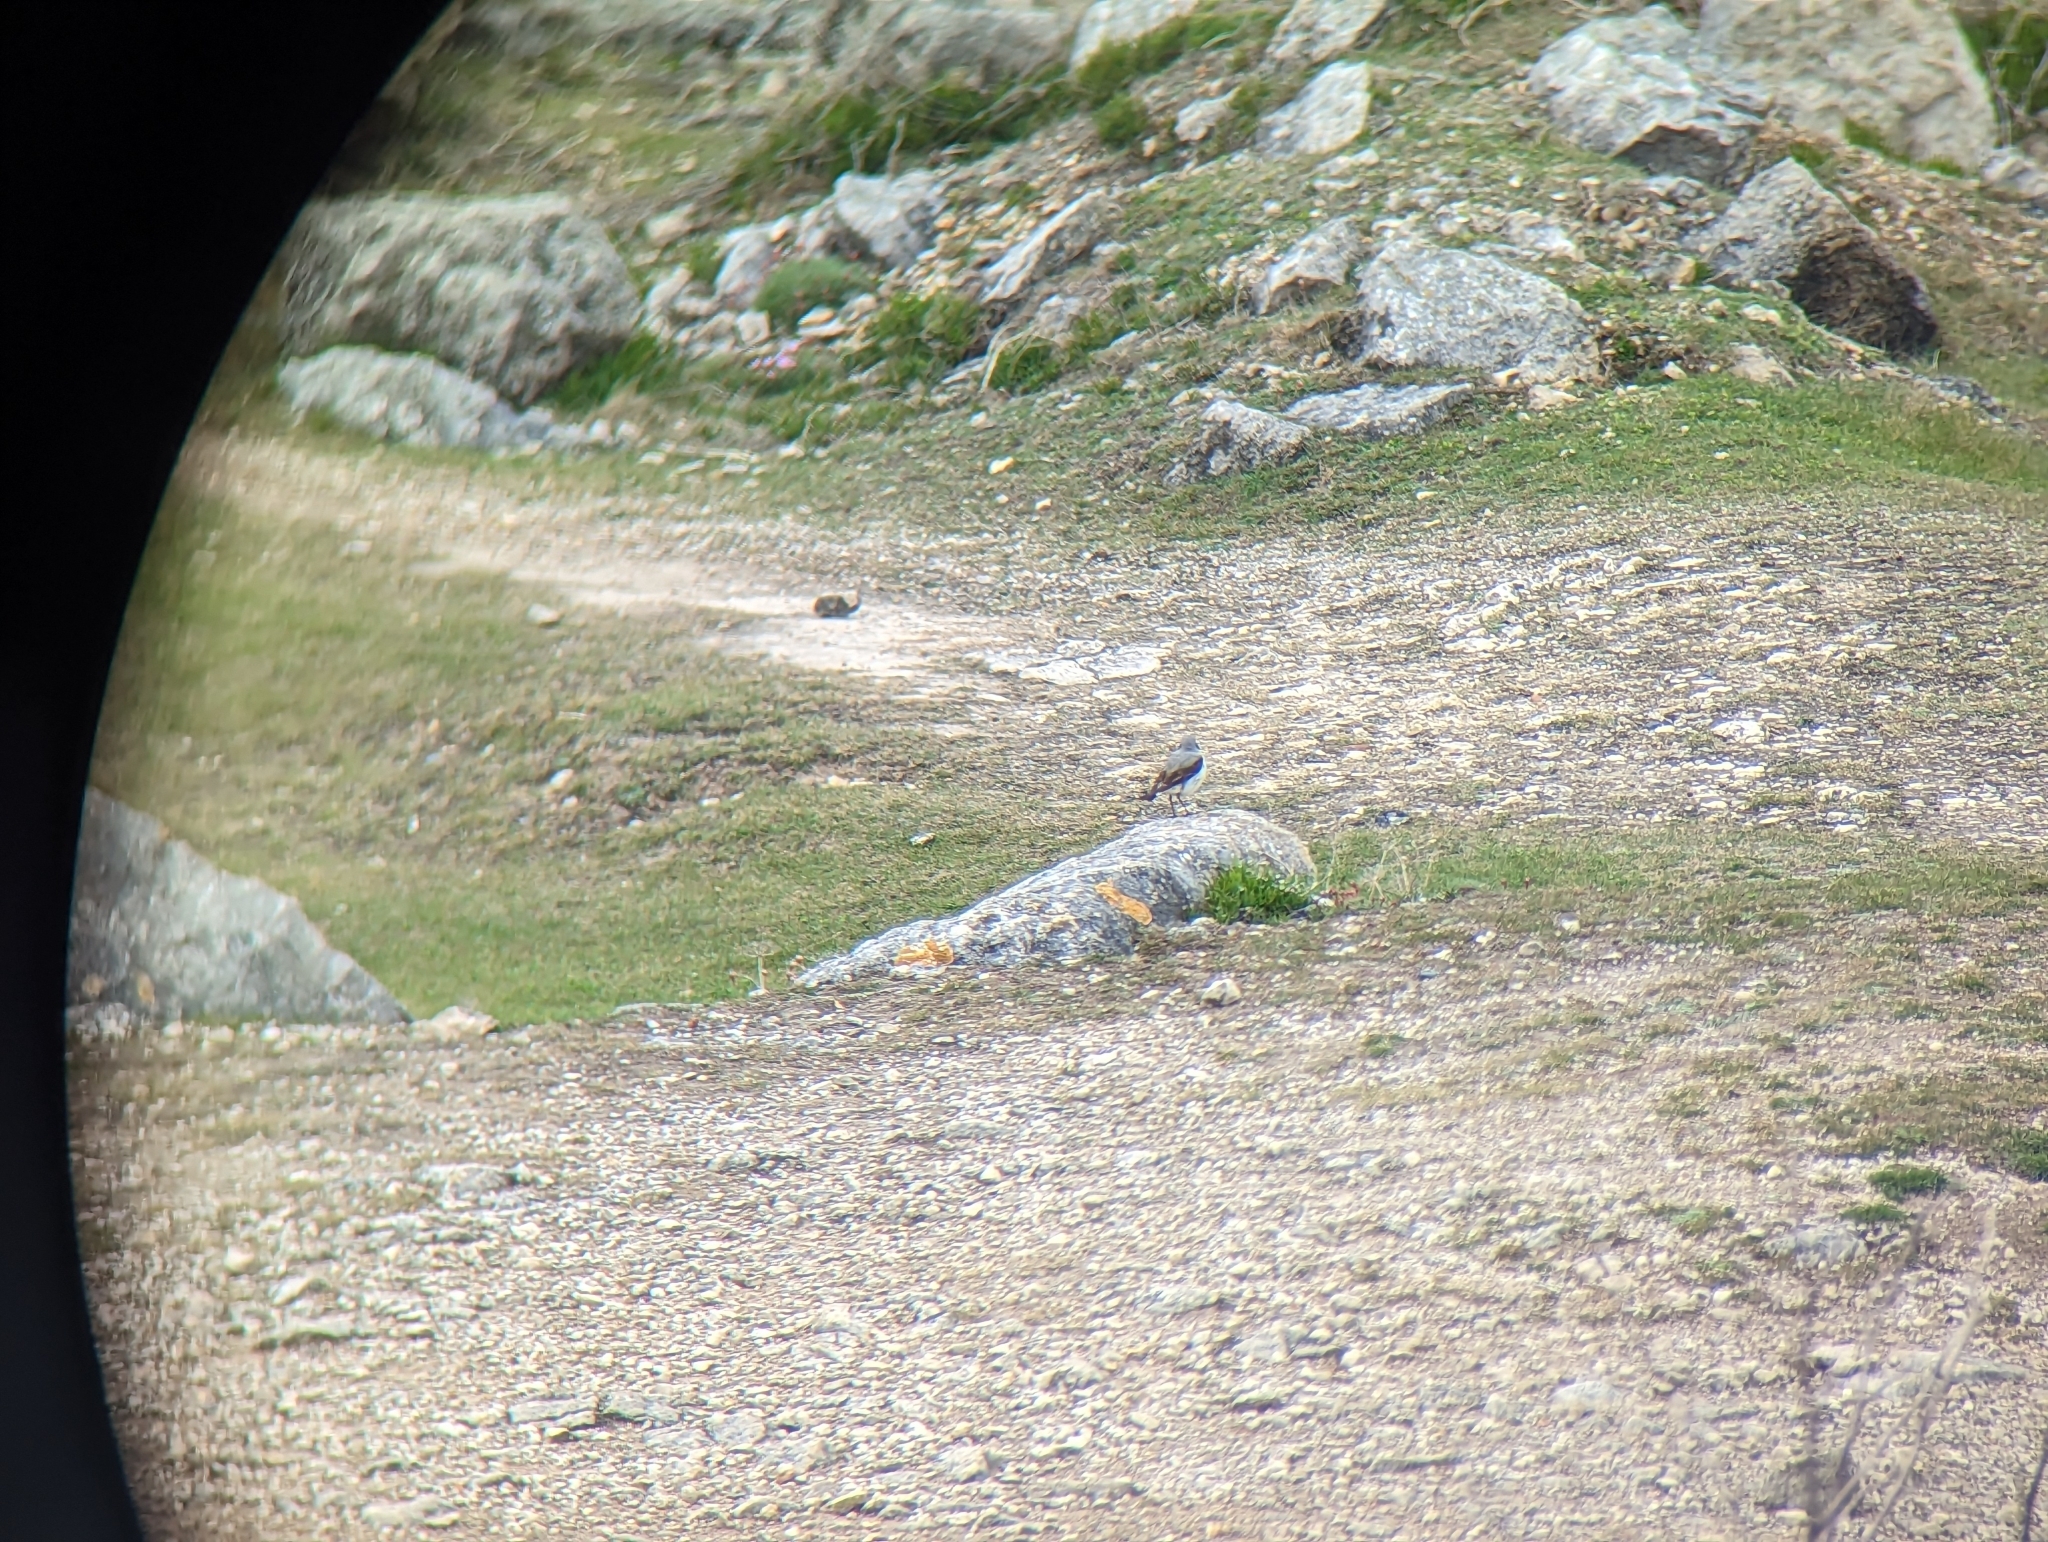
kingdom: Animalia
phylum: Chordata
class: Aves
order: Passeriformes
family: Muscicapidae
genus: Oenanthe
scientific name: Oenanthe oenanthe
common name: Northern wheatear
